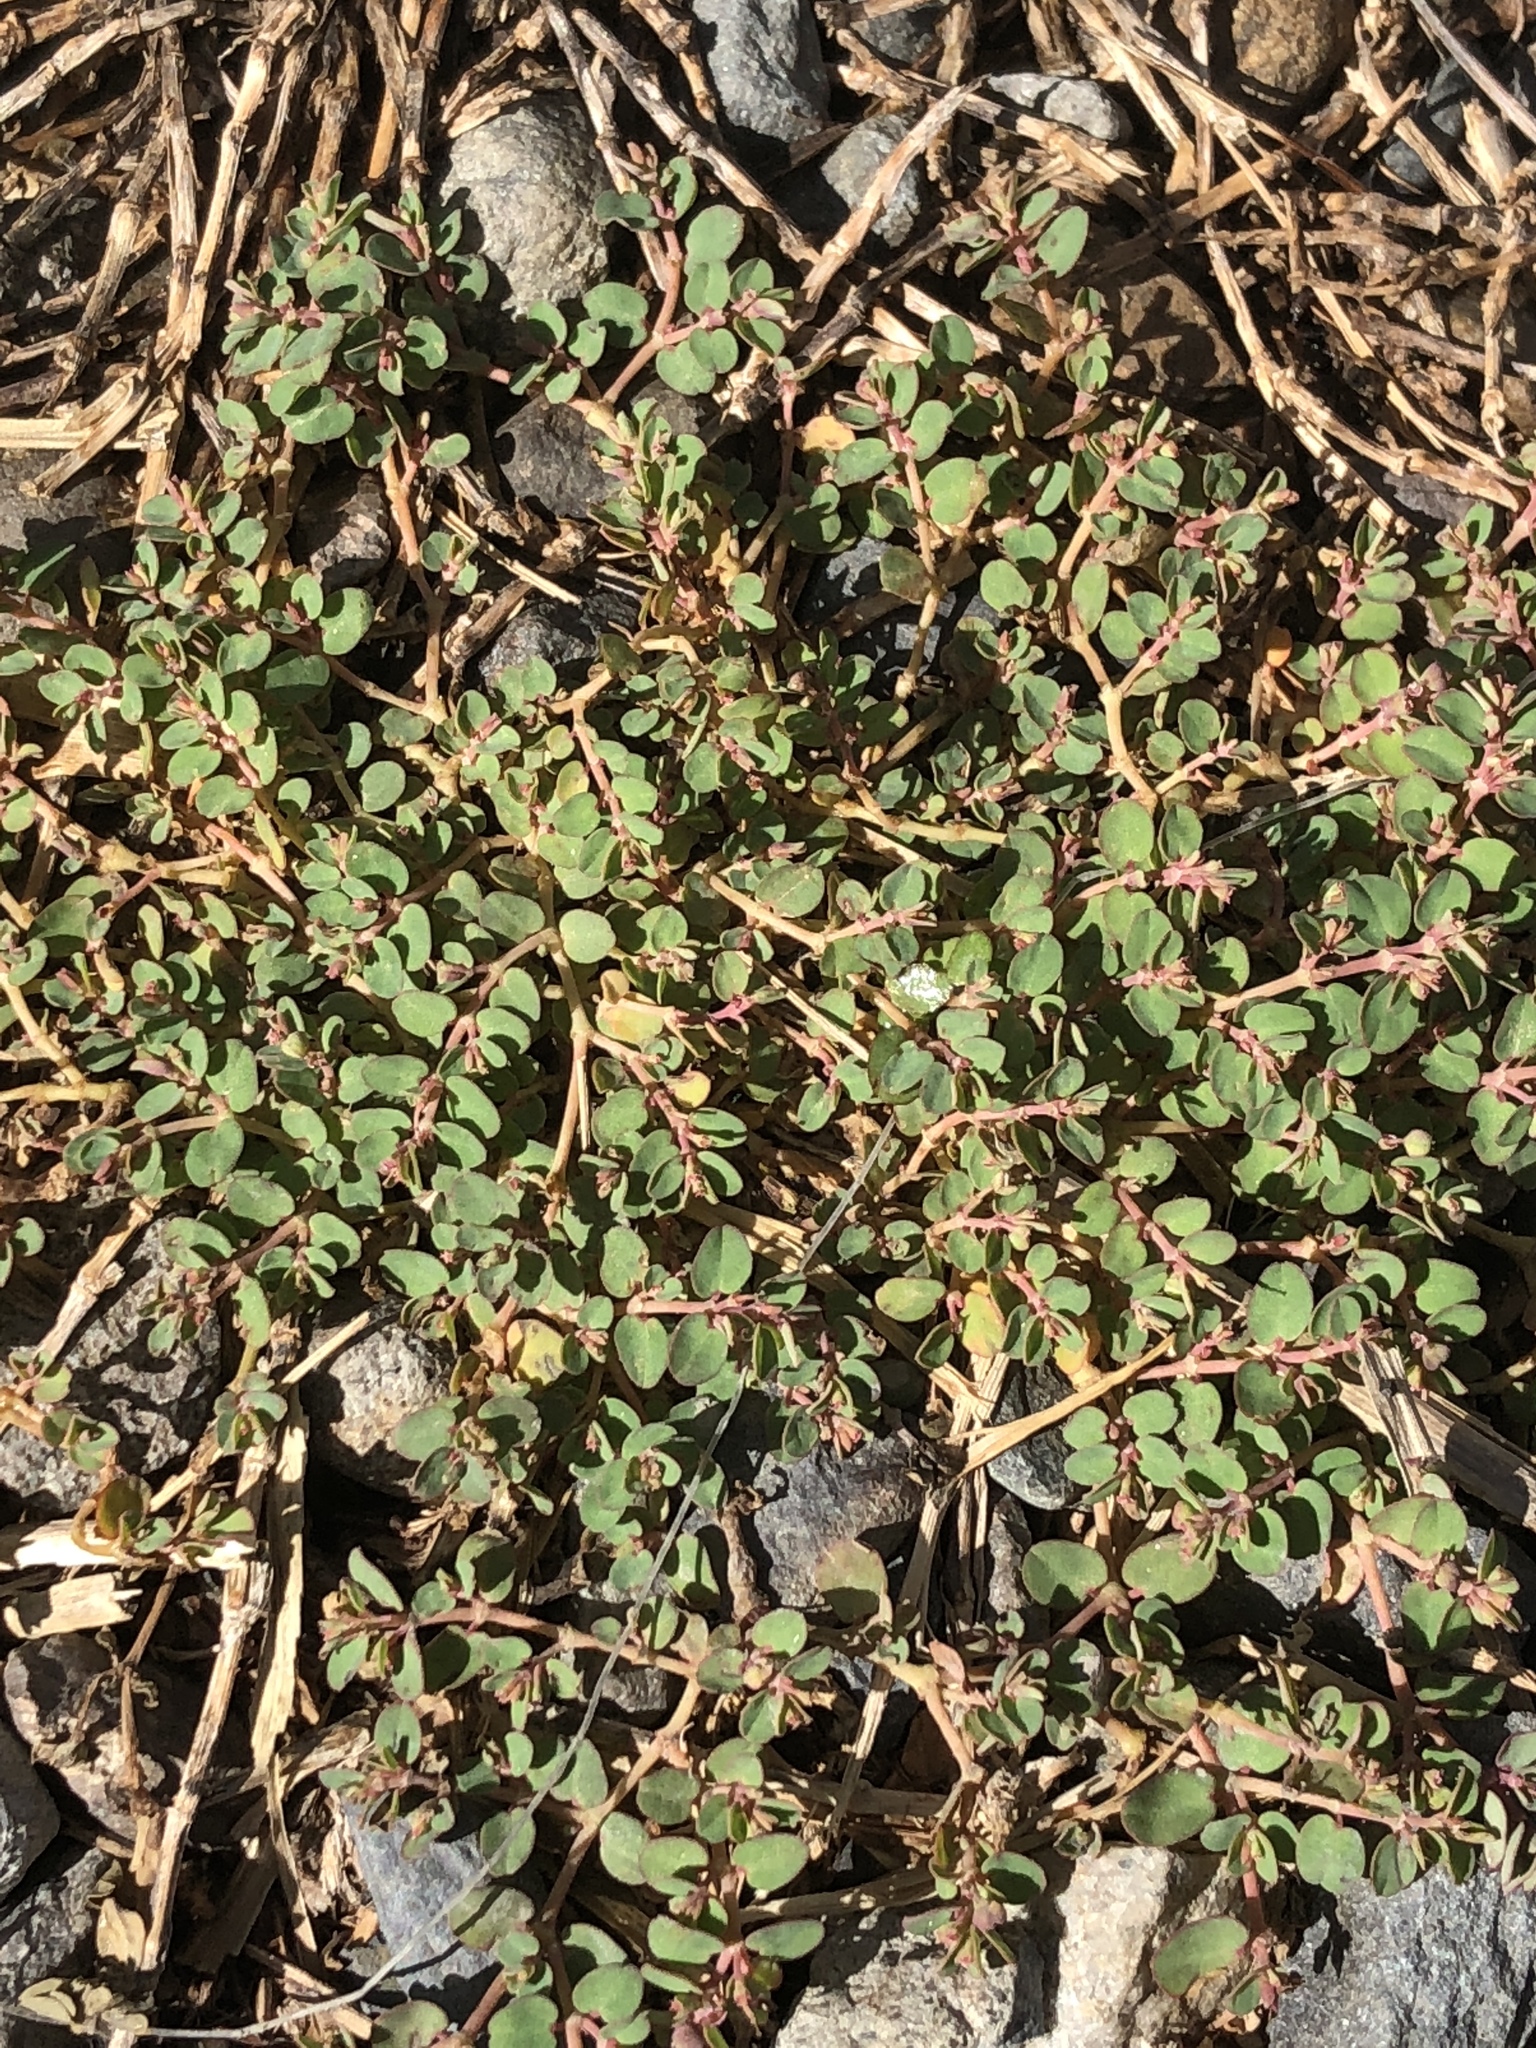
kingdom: Plantae
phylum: Tracheophyta
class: Magnoliopsida
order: Malpighiales
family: Euphorbiaceae
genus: Euphorbia
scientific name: Euphorbia makinoi
